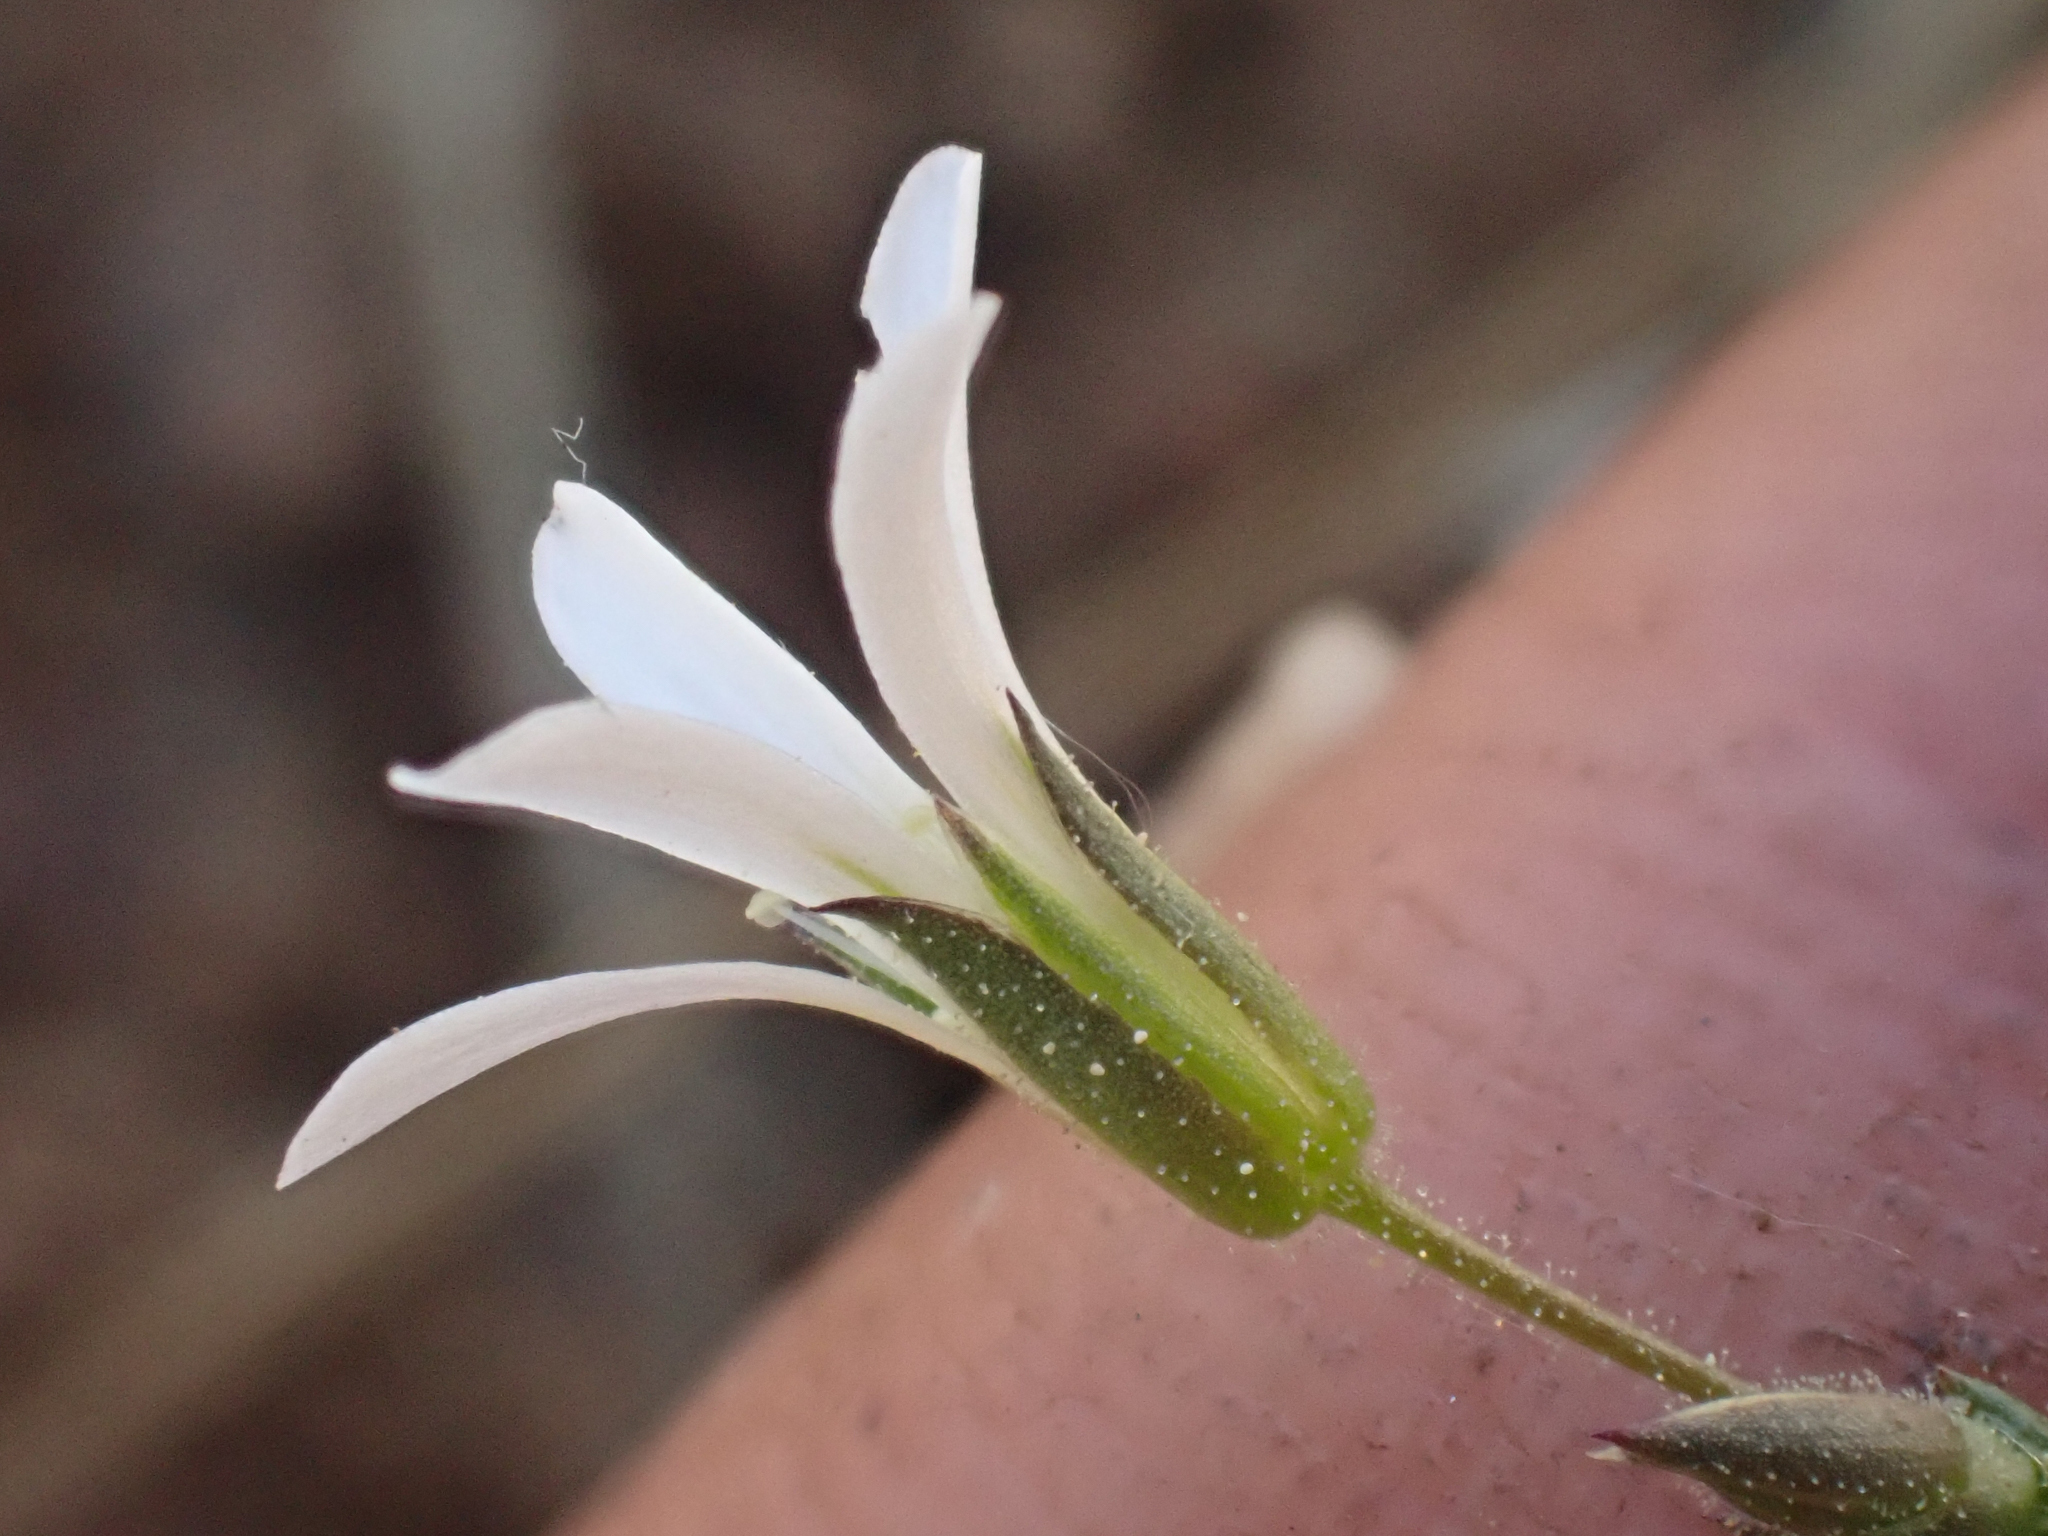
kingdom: Plantae
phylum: Tracheophyta
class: Magnoliopsida
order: Caryophyllales
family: Caryophyllaceae
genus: Sabulina
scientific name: Sabulina stolonifera
